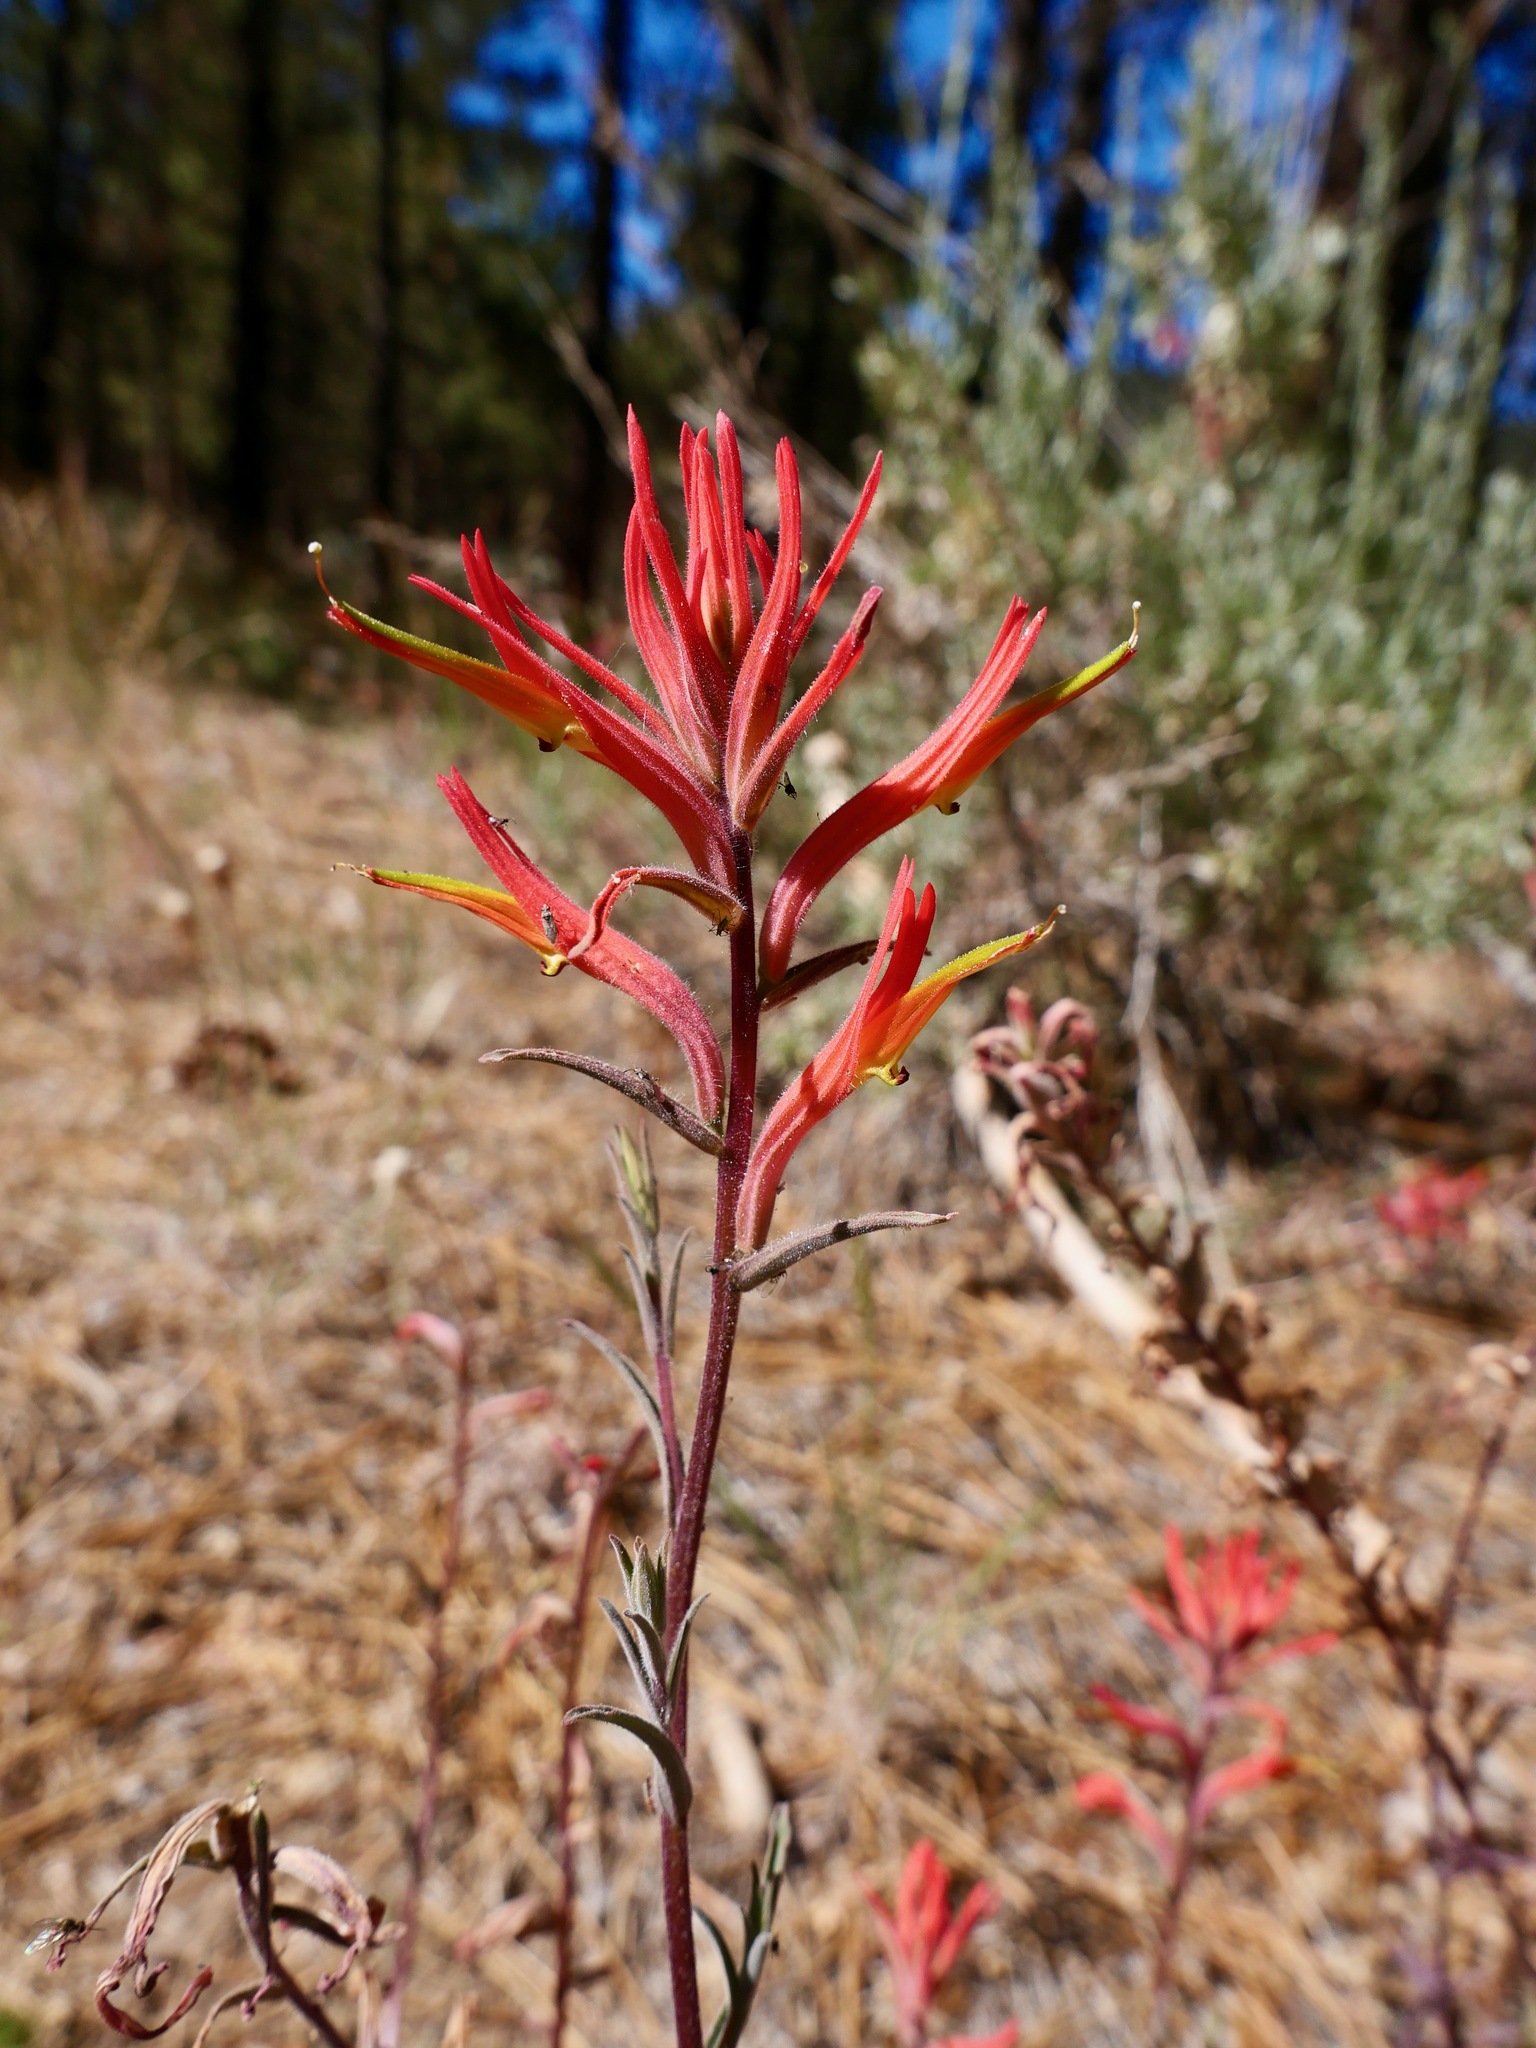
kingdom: Plantae
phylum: Tracheophyta
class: Magnoliopsida
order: Lamiales
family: Orobanchaceae
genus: Castilleja
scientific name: Castilleja subinclusa
